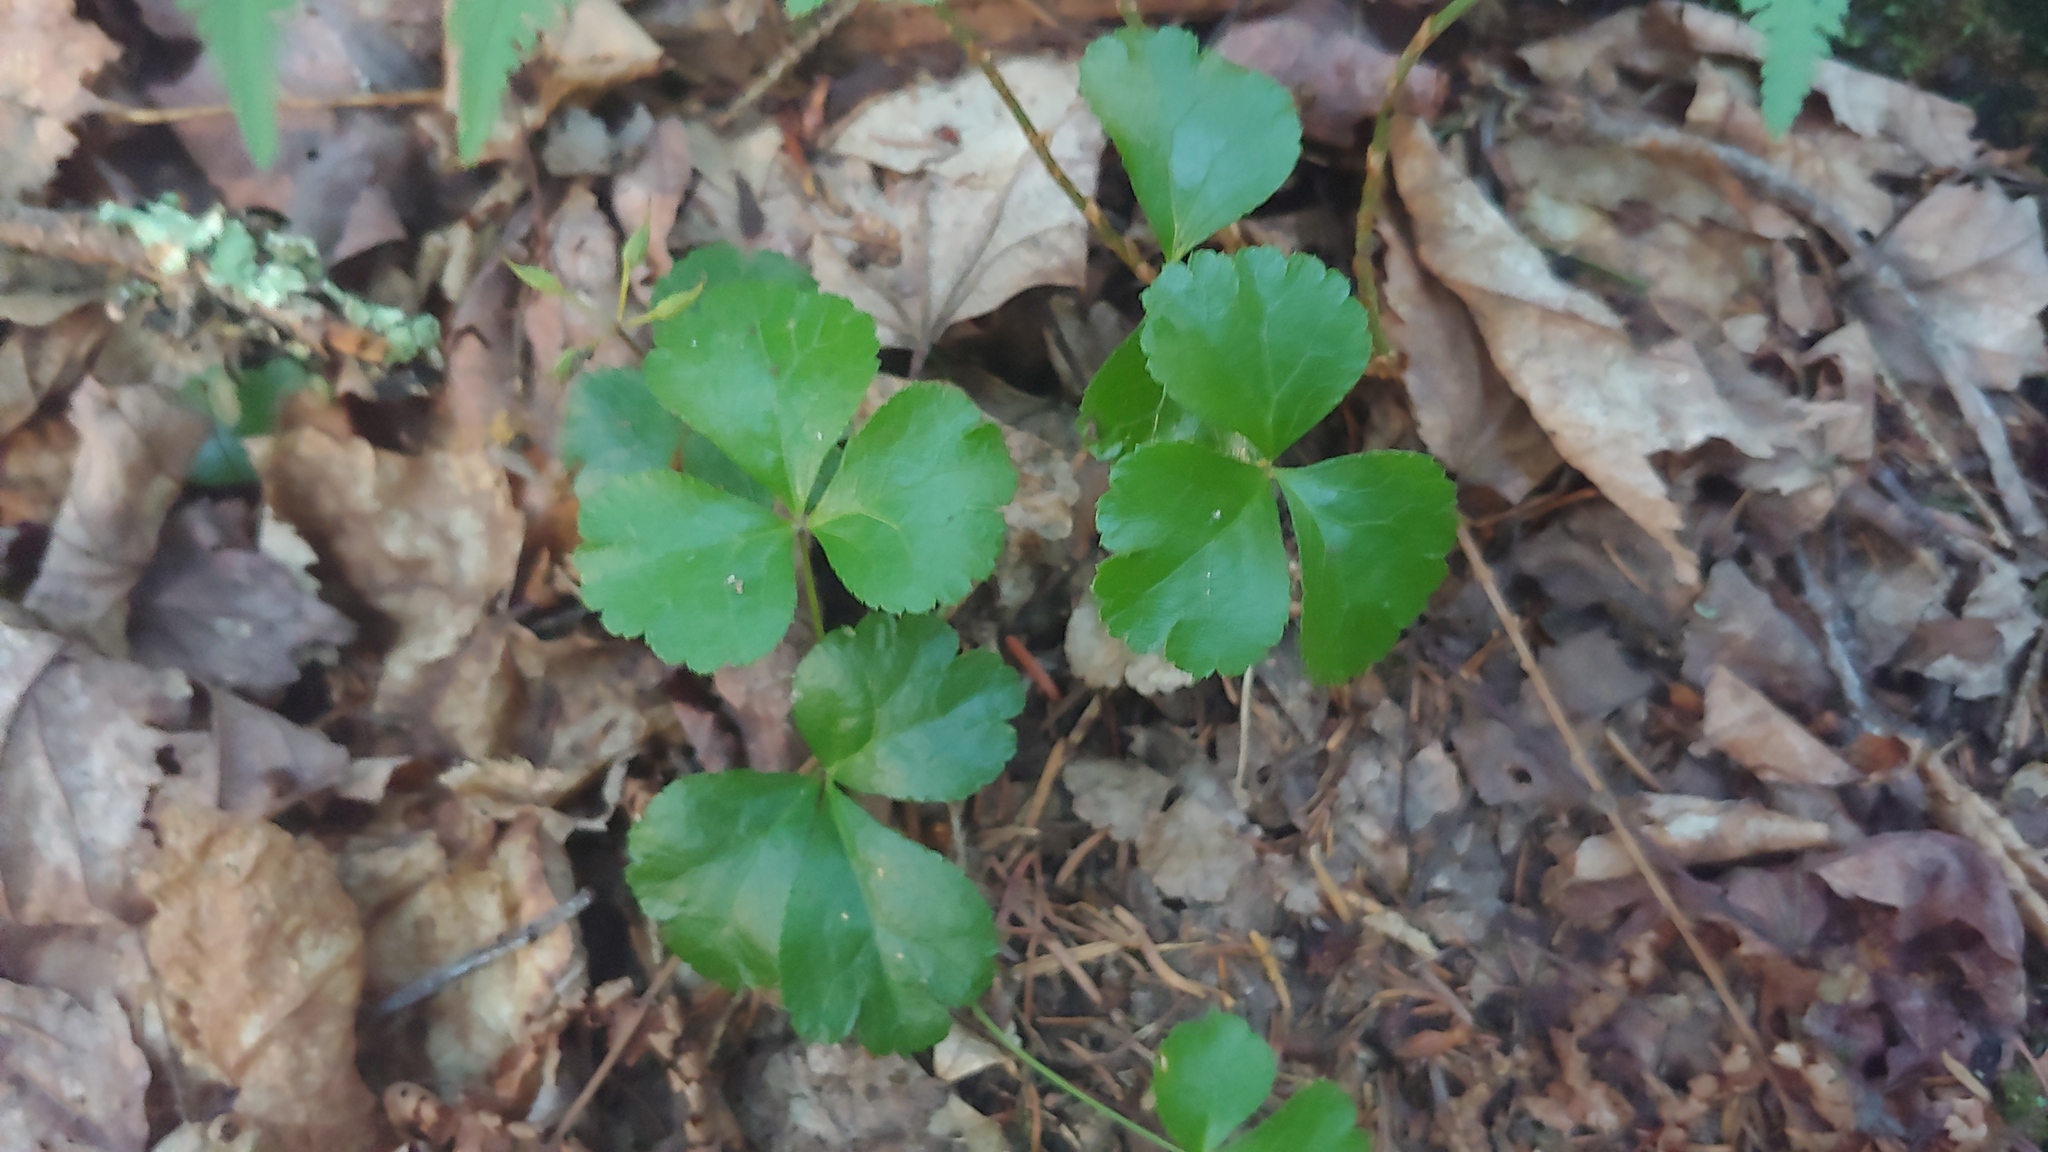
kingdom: Plantae
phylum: Tracheophyta
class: Magnoliopsida
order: Ranunculales
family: Ranunculaceae
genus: Coptis
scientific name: Coptis trifolia
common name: Canker-root
